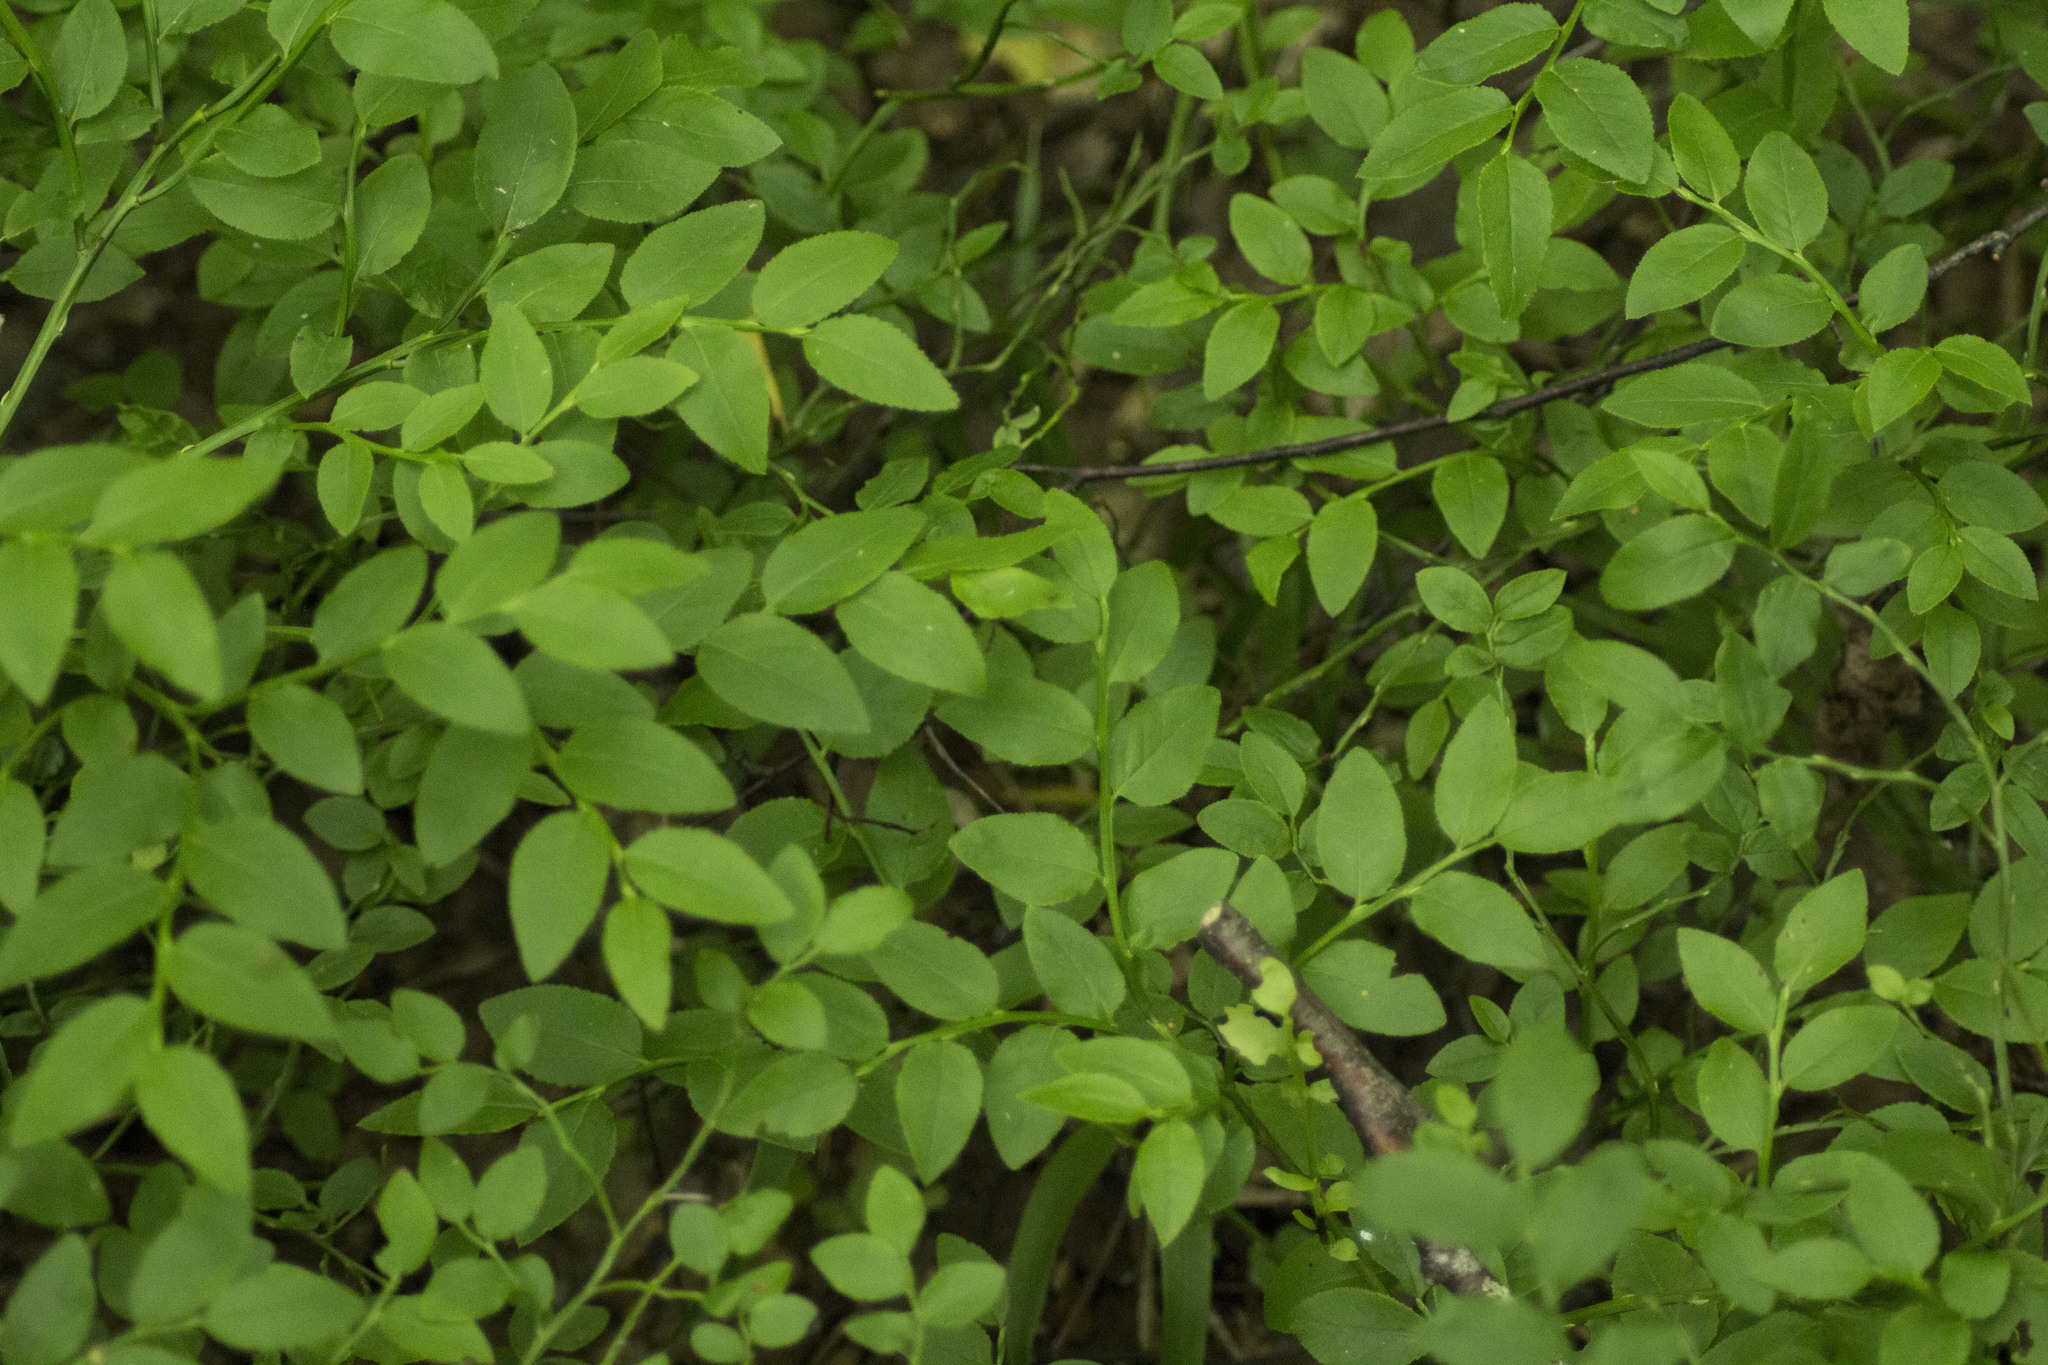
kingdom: Plantae
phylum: Tracheophyta
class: Magnoliopsida
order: Ericales
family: Ericaceae
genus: Vaccinium
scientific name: Vaccinium myrtillus
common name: Bilberry
